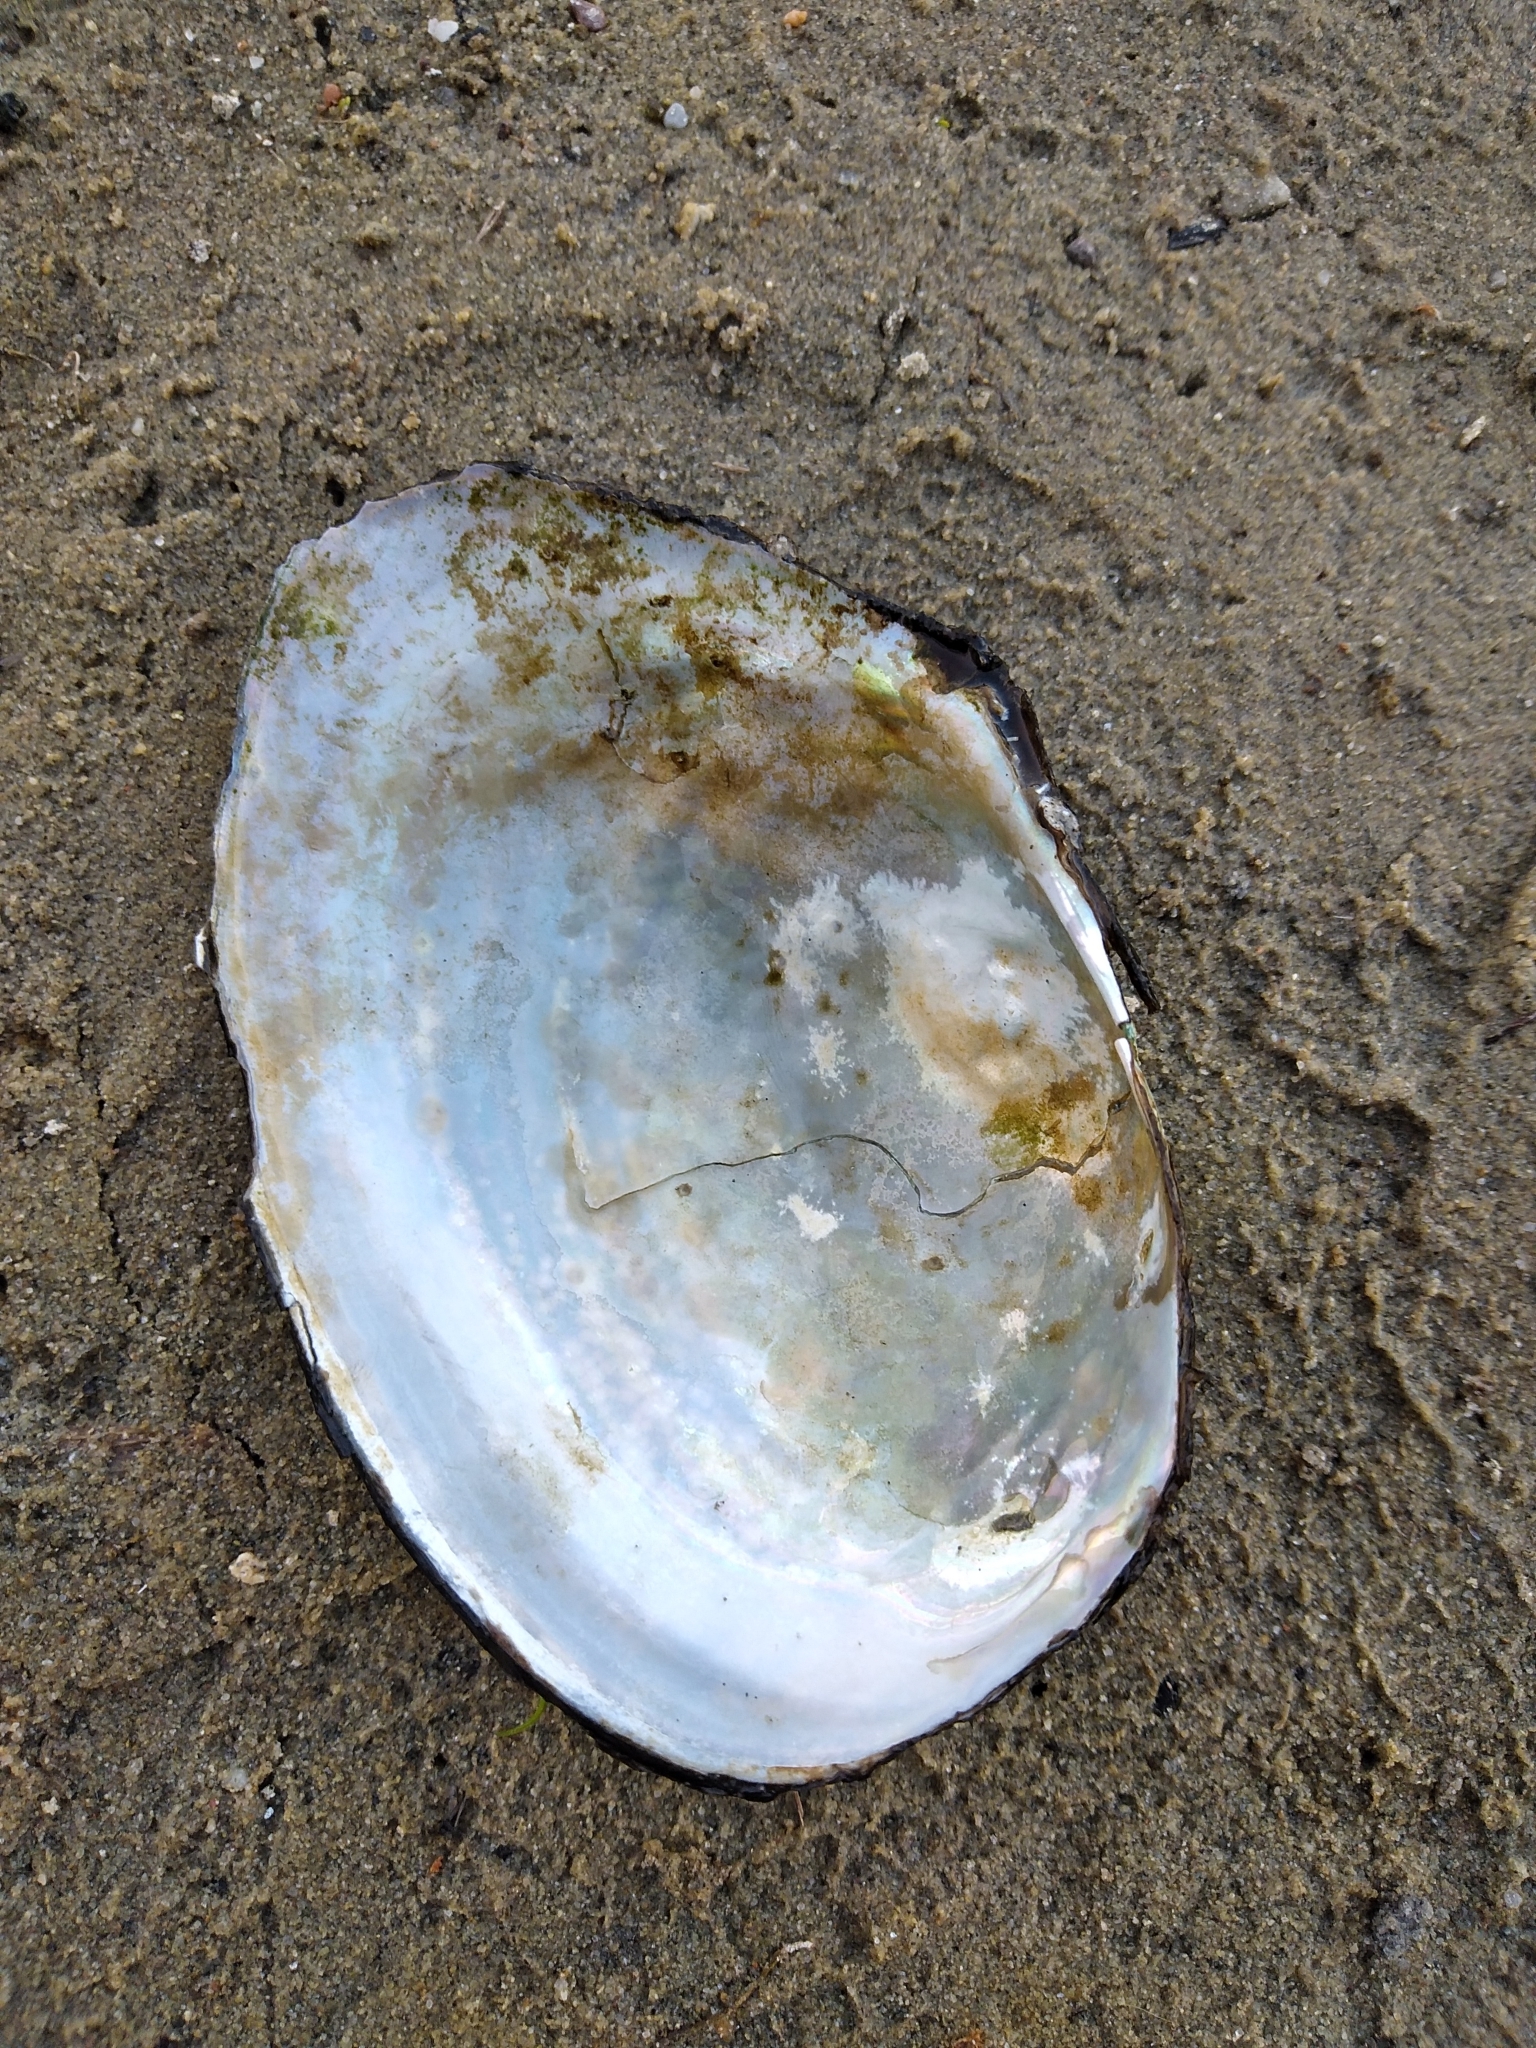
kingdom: Animalia
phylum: Mollusca
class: Bivalvia
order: Unionida
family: Unionidae
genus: Sinanodonta
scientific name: Sinanodonta woodiana
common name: Chinese pond mussel
